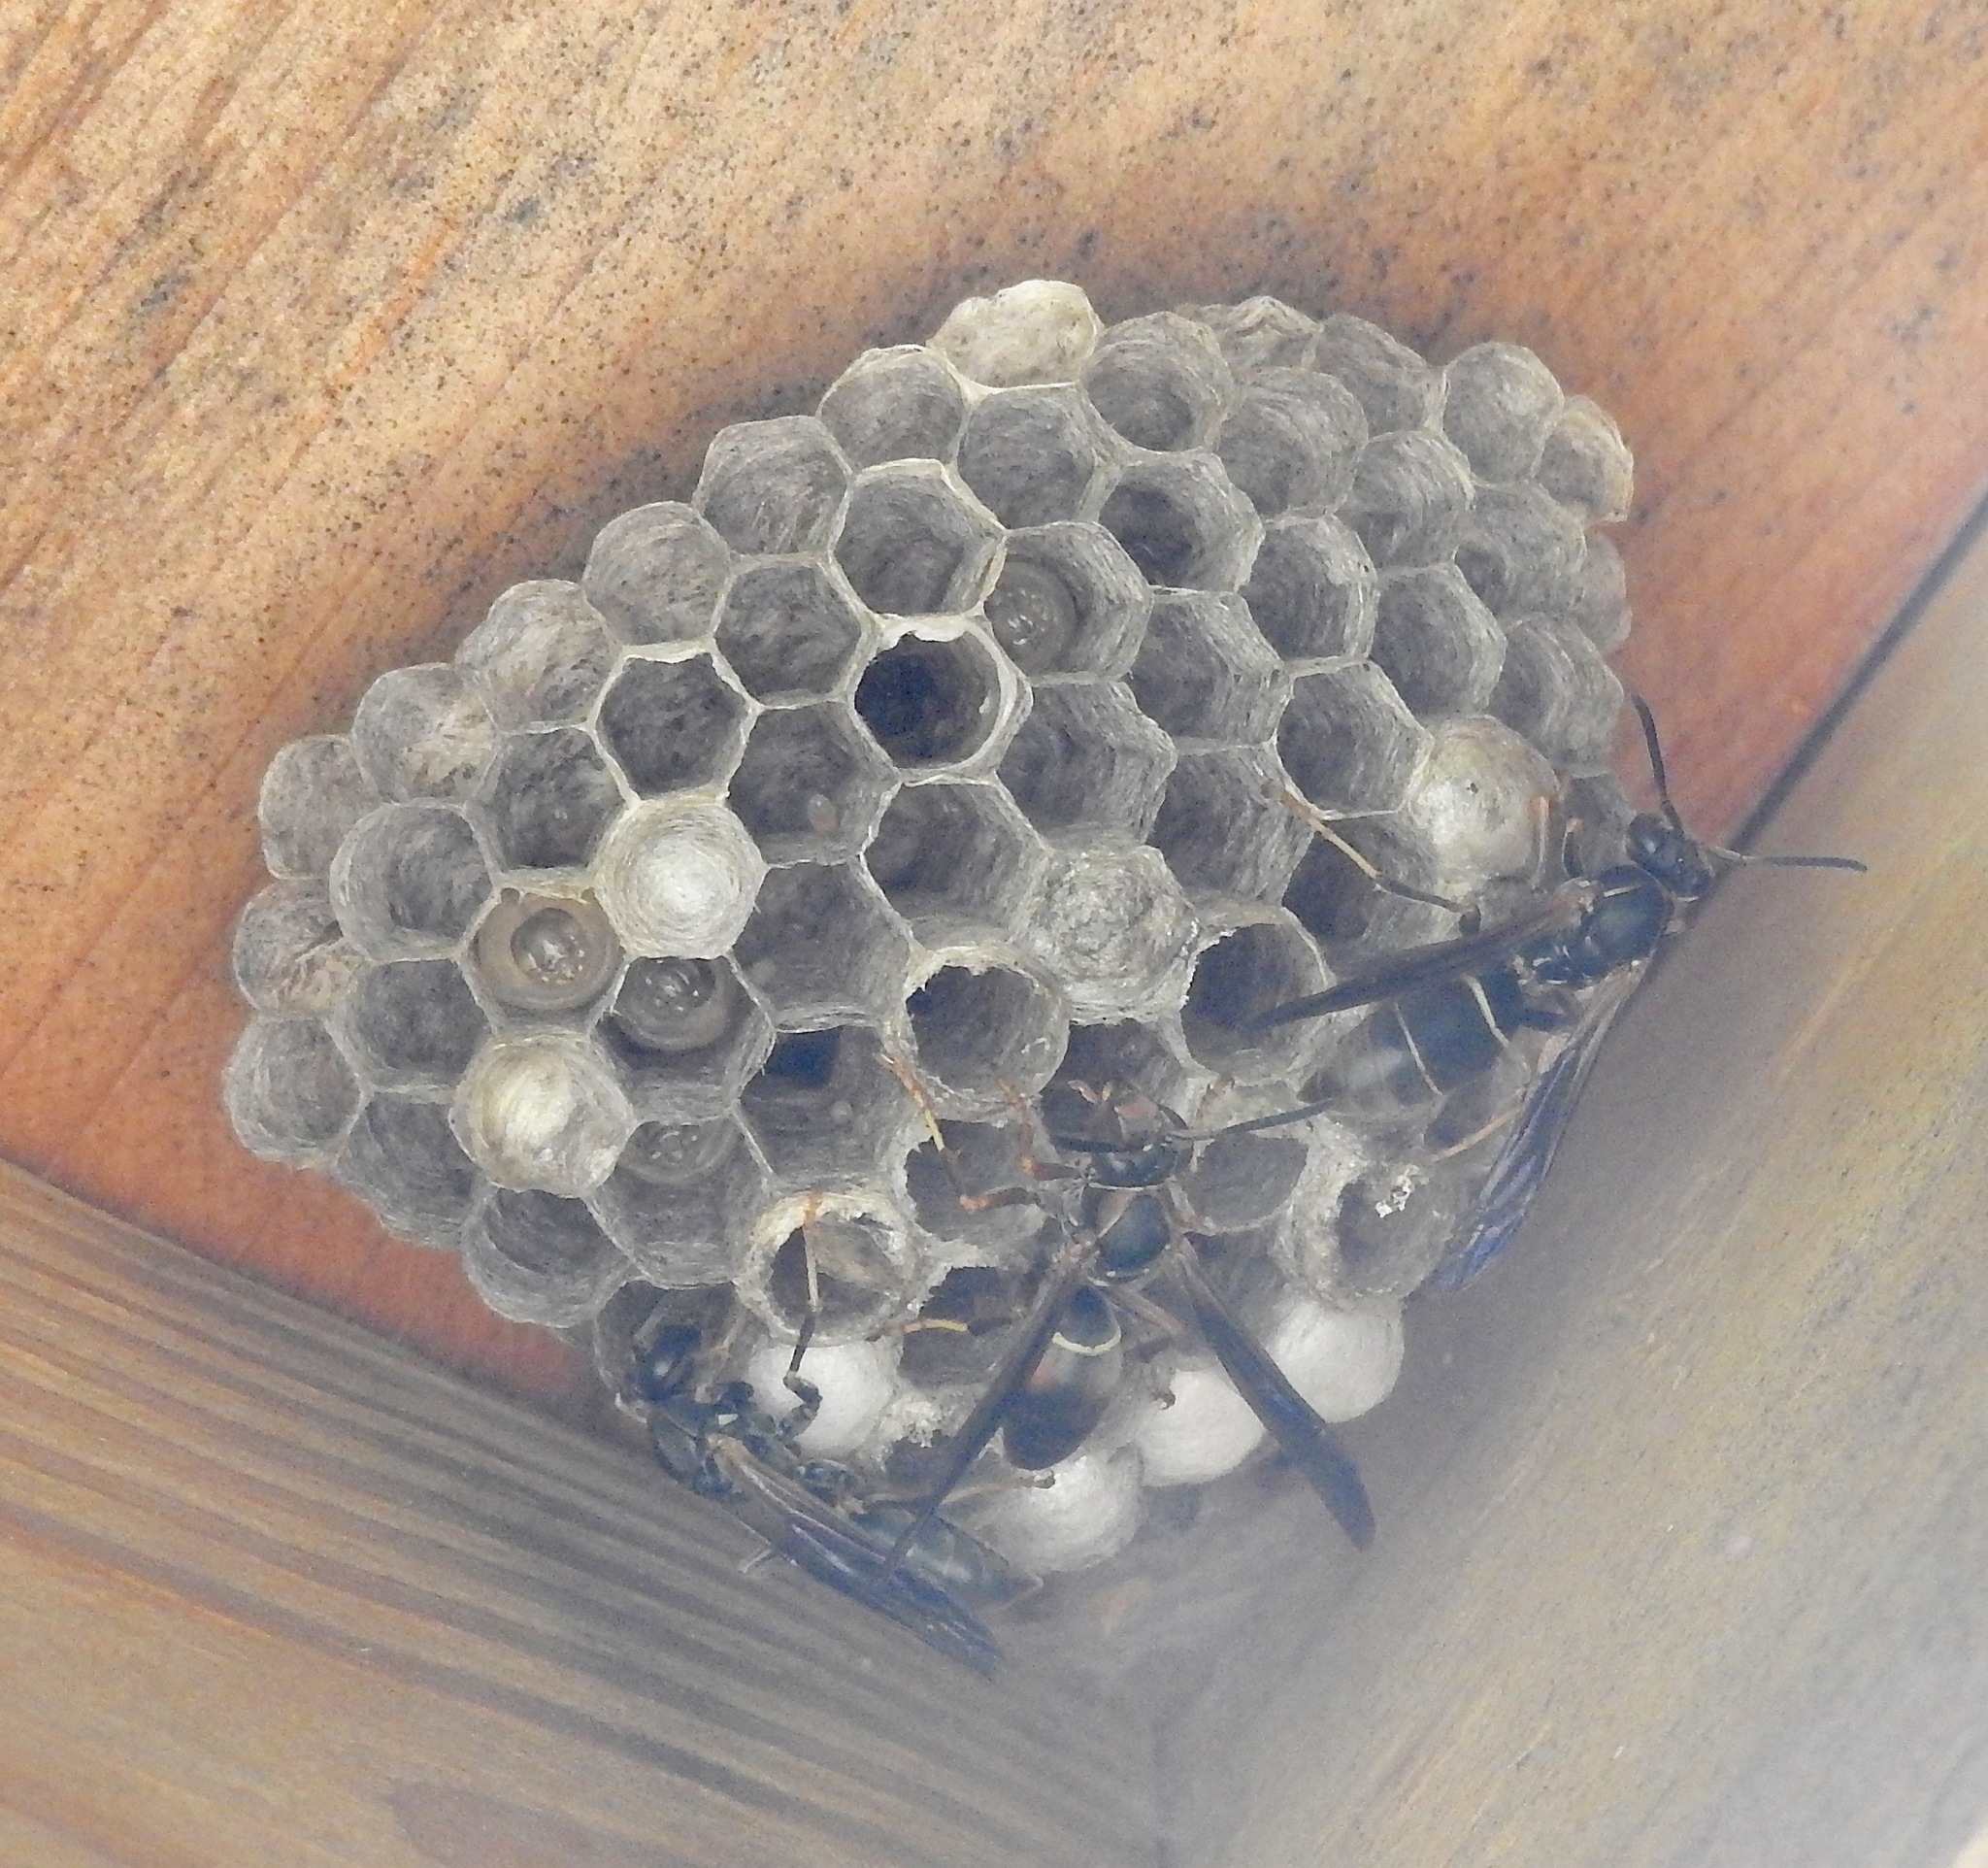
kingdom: Animalia
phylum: Arthropoda
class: Insecta
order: Hymenoptera
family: Eumenidae
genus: Polistes
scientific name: Polistes fuscatus
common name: Dark paper wasp
